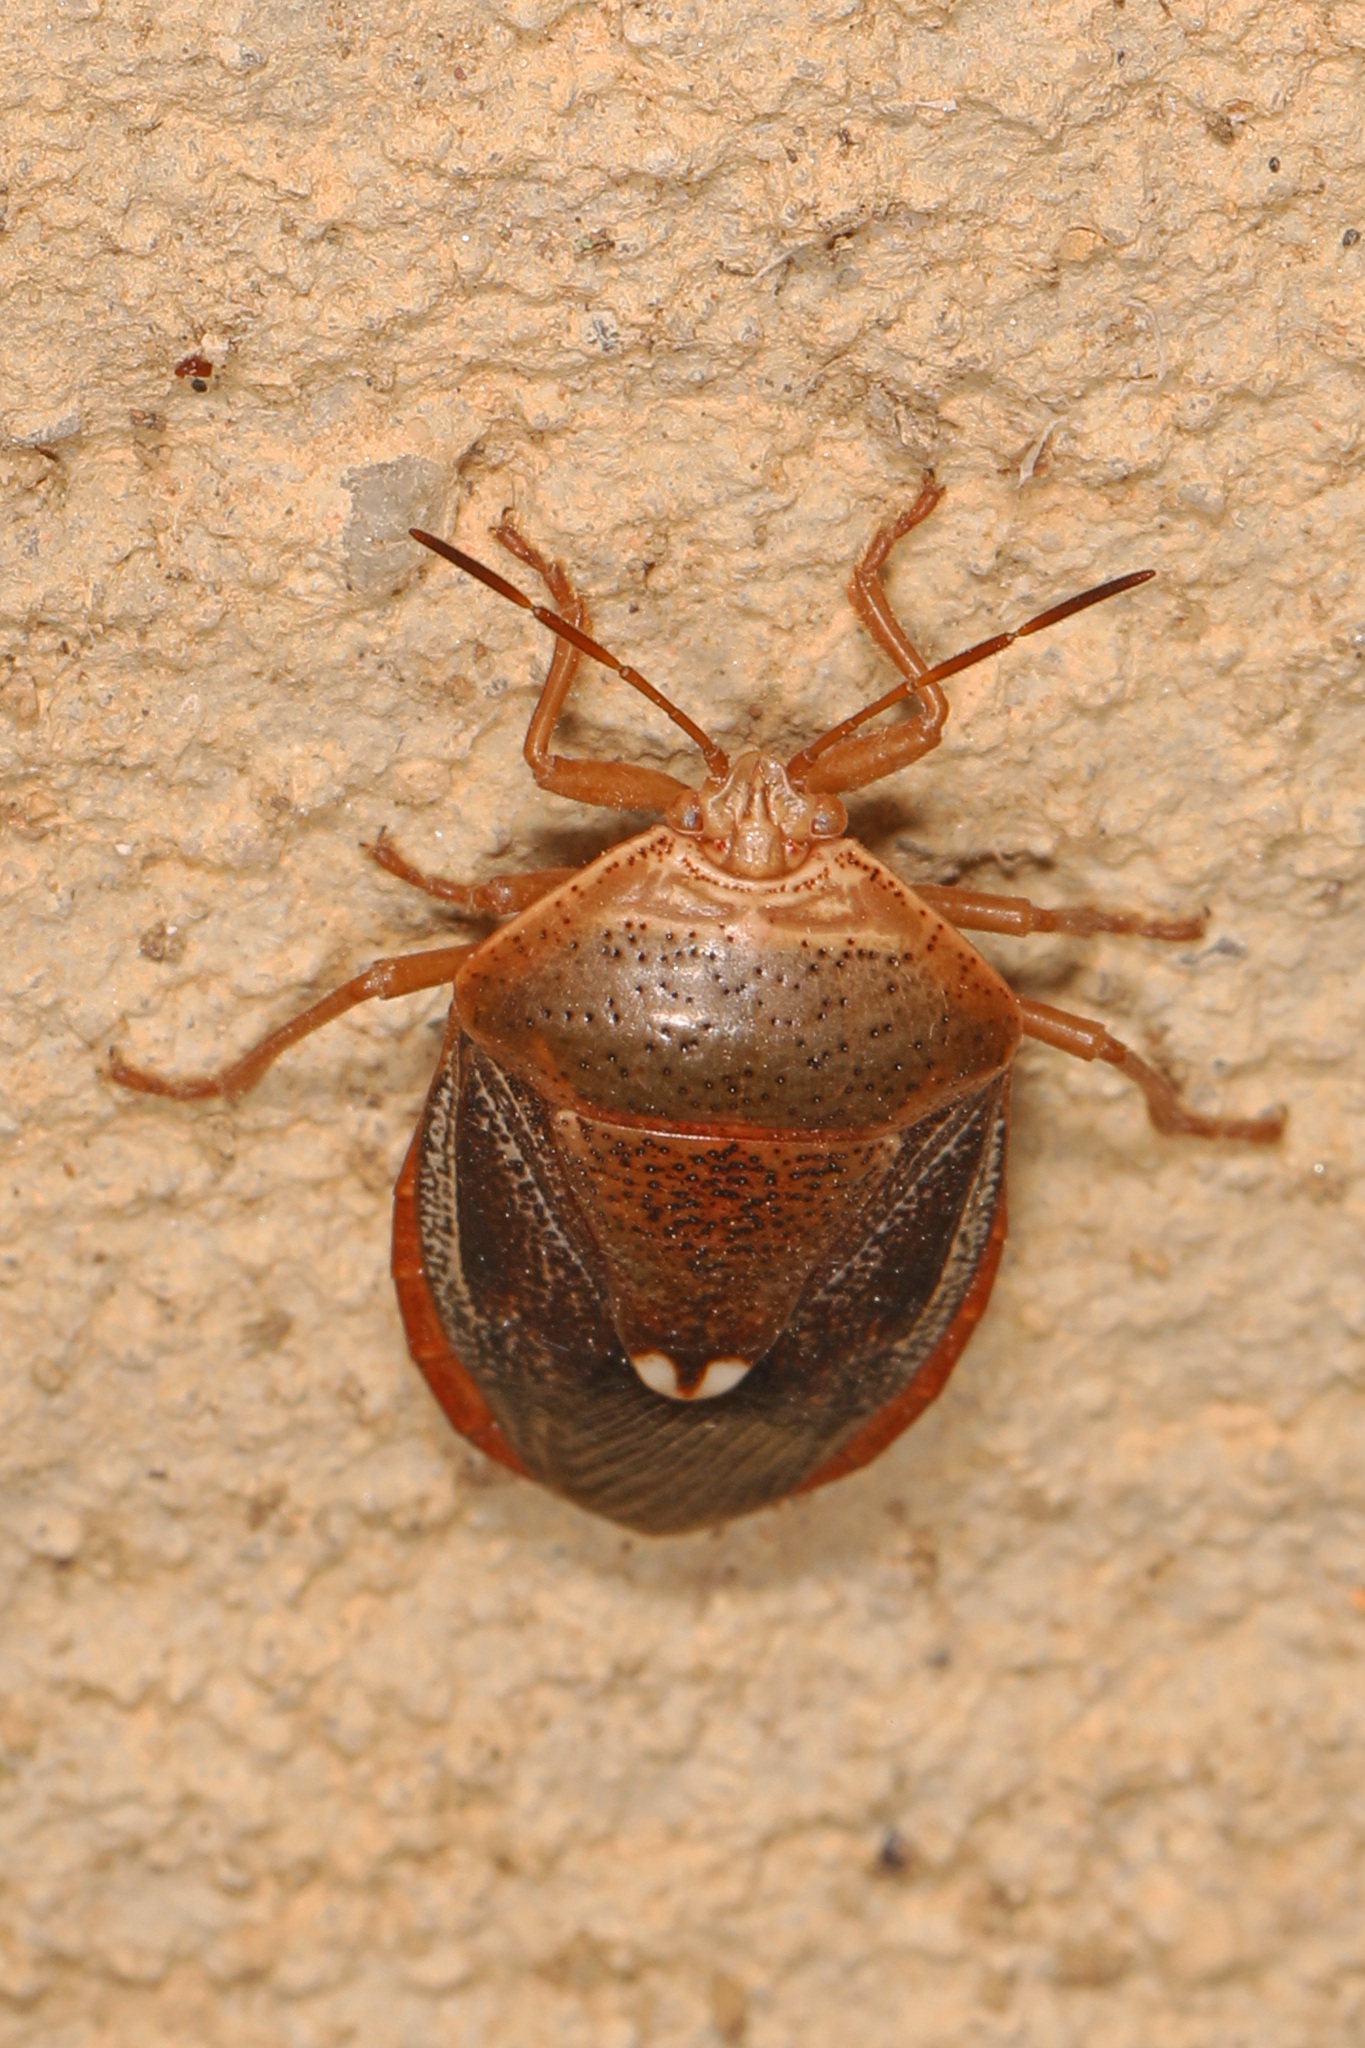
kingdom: Animalia
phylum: Arthropoda
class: Insecta
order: Hemiptera
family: Pentatomidae
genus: Edessa
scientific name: Edessa bifida
